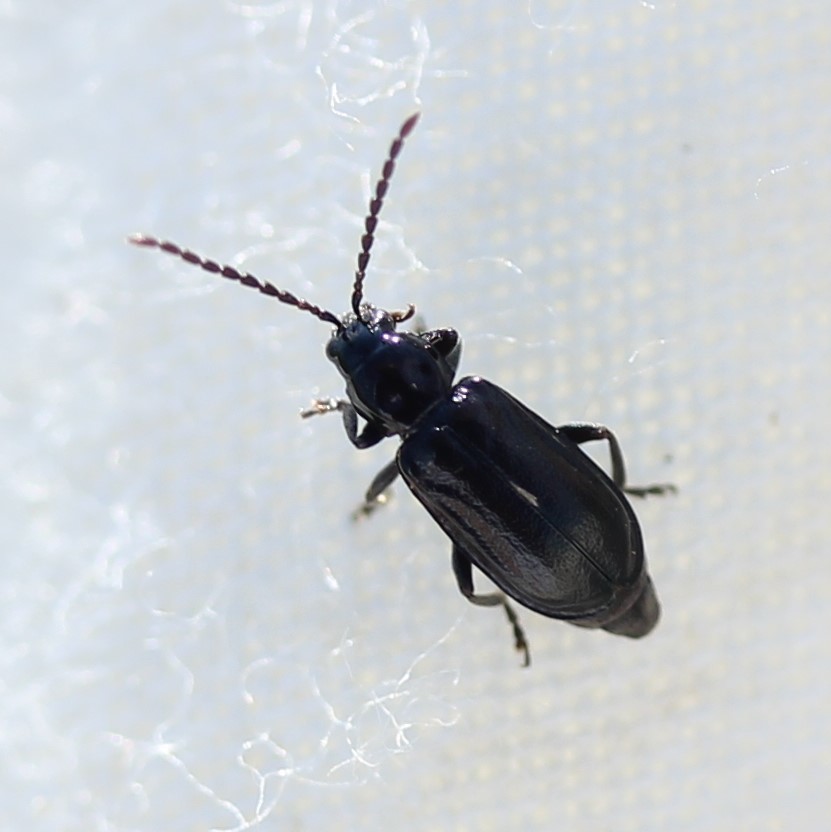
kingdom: Animalia
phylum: Arthropoda
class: Insecta
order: Coleoptera
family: Chrysomelidae
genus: Diabrotica
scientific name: Diabrotica cristata
